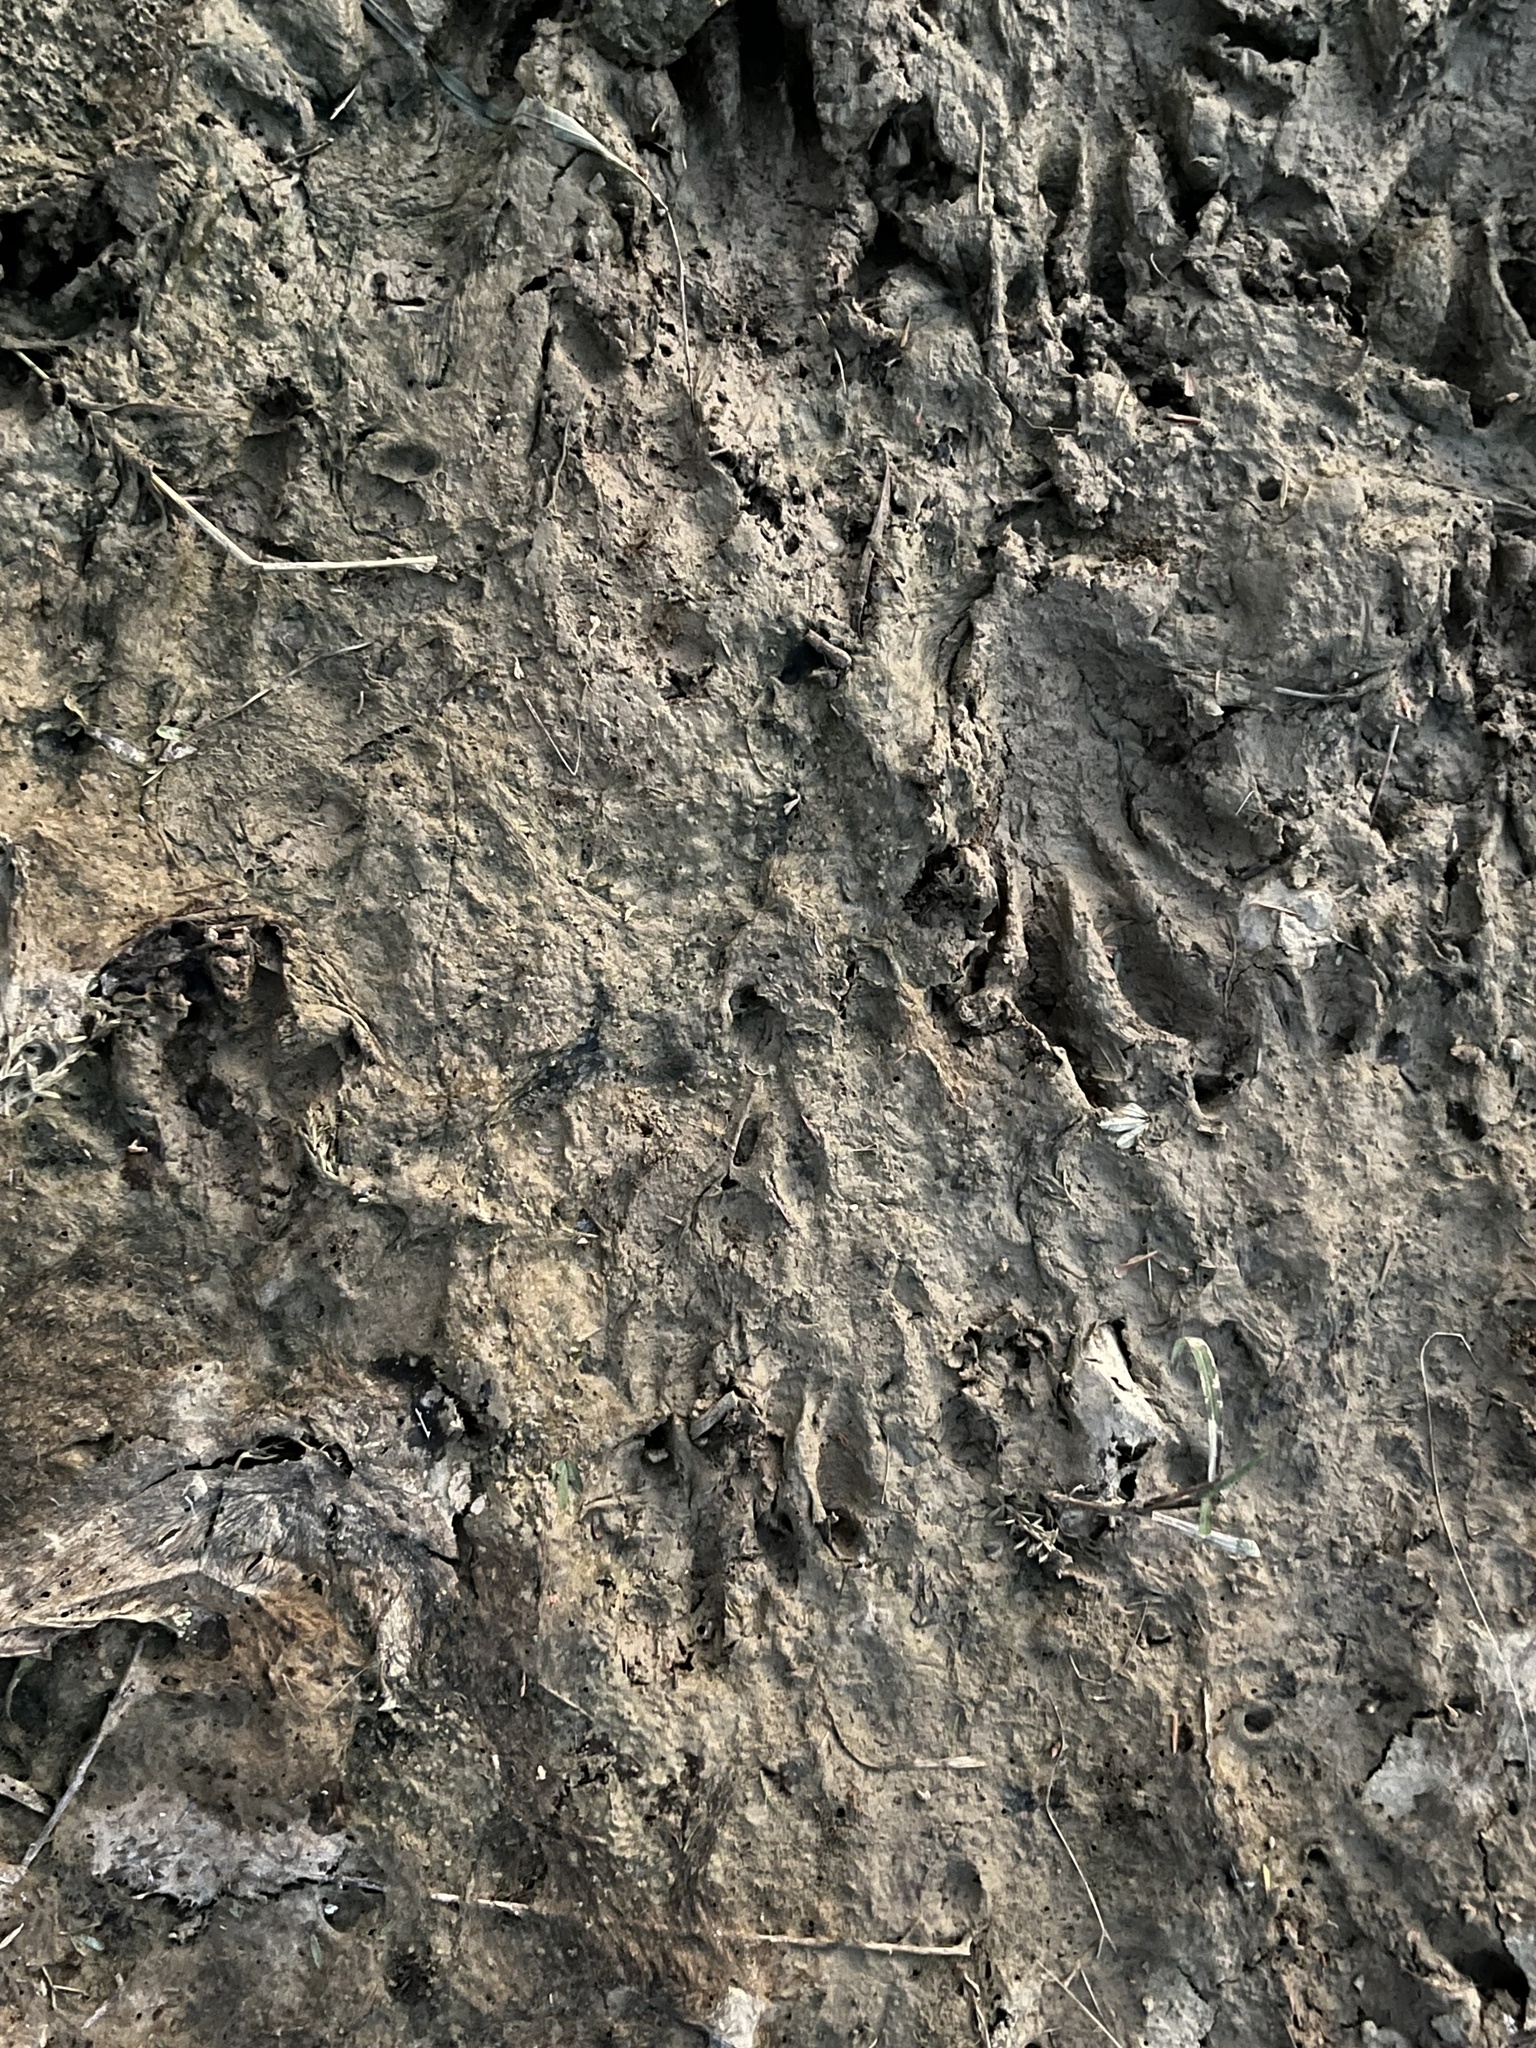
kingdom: Animalia
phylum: Chordata
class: Mammalia
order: Rodentia
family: Castoridae
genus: Castor
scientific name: Castor canadensis
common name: American beaver
